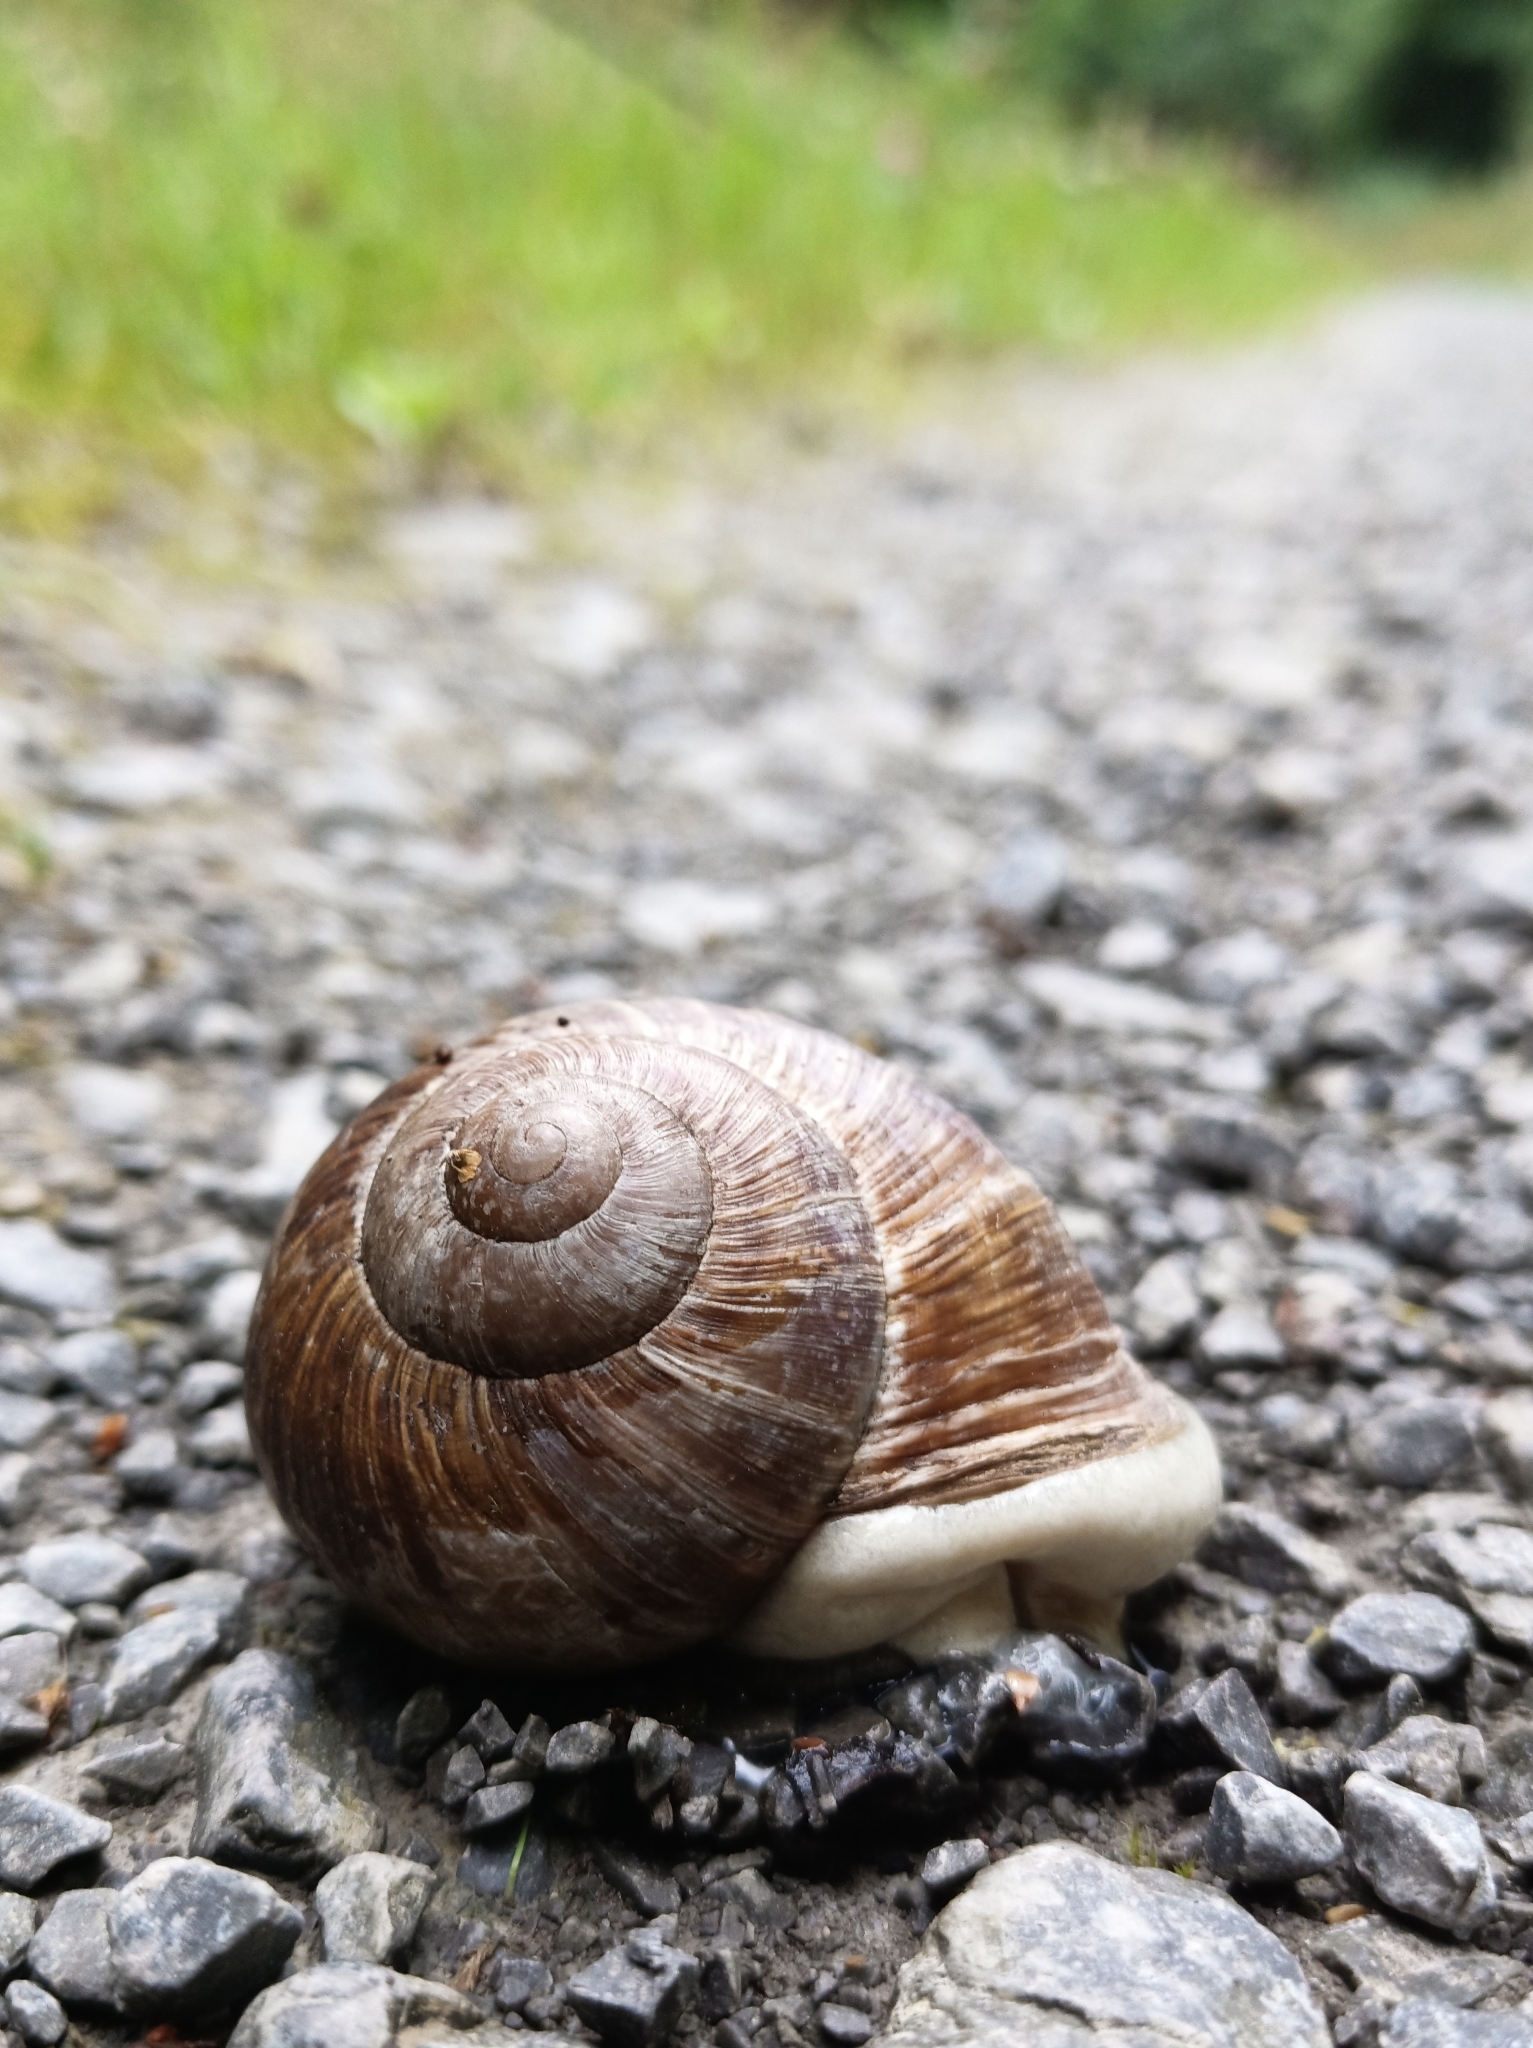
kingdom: Animalia
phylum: Mollusca
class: Gastropoda
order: Stylommatophora
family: Helicidae
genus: Helix
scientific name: Helix pomatia
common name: Roman snail
